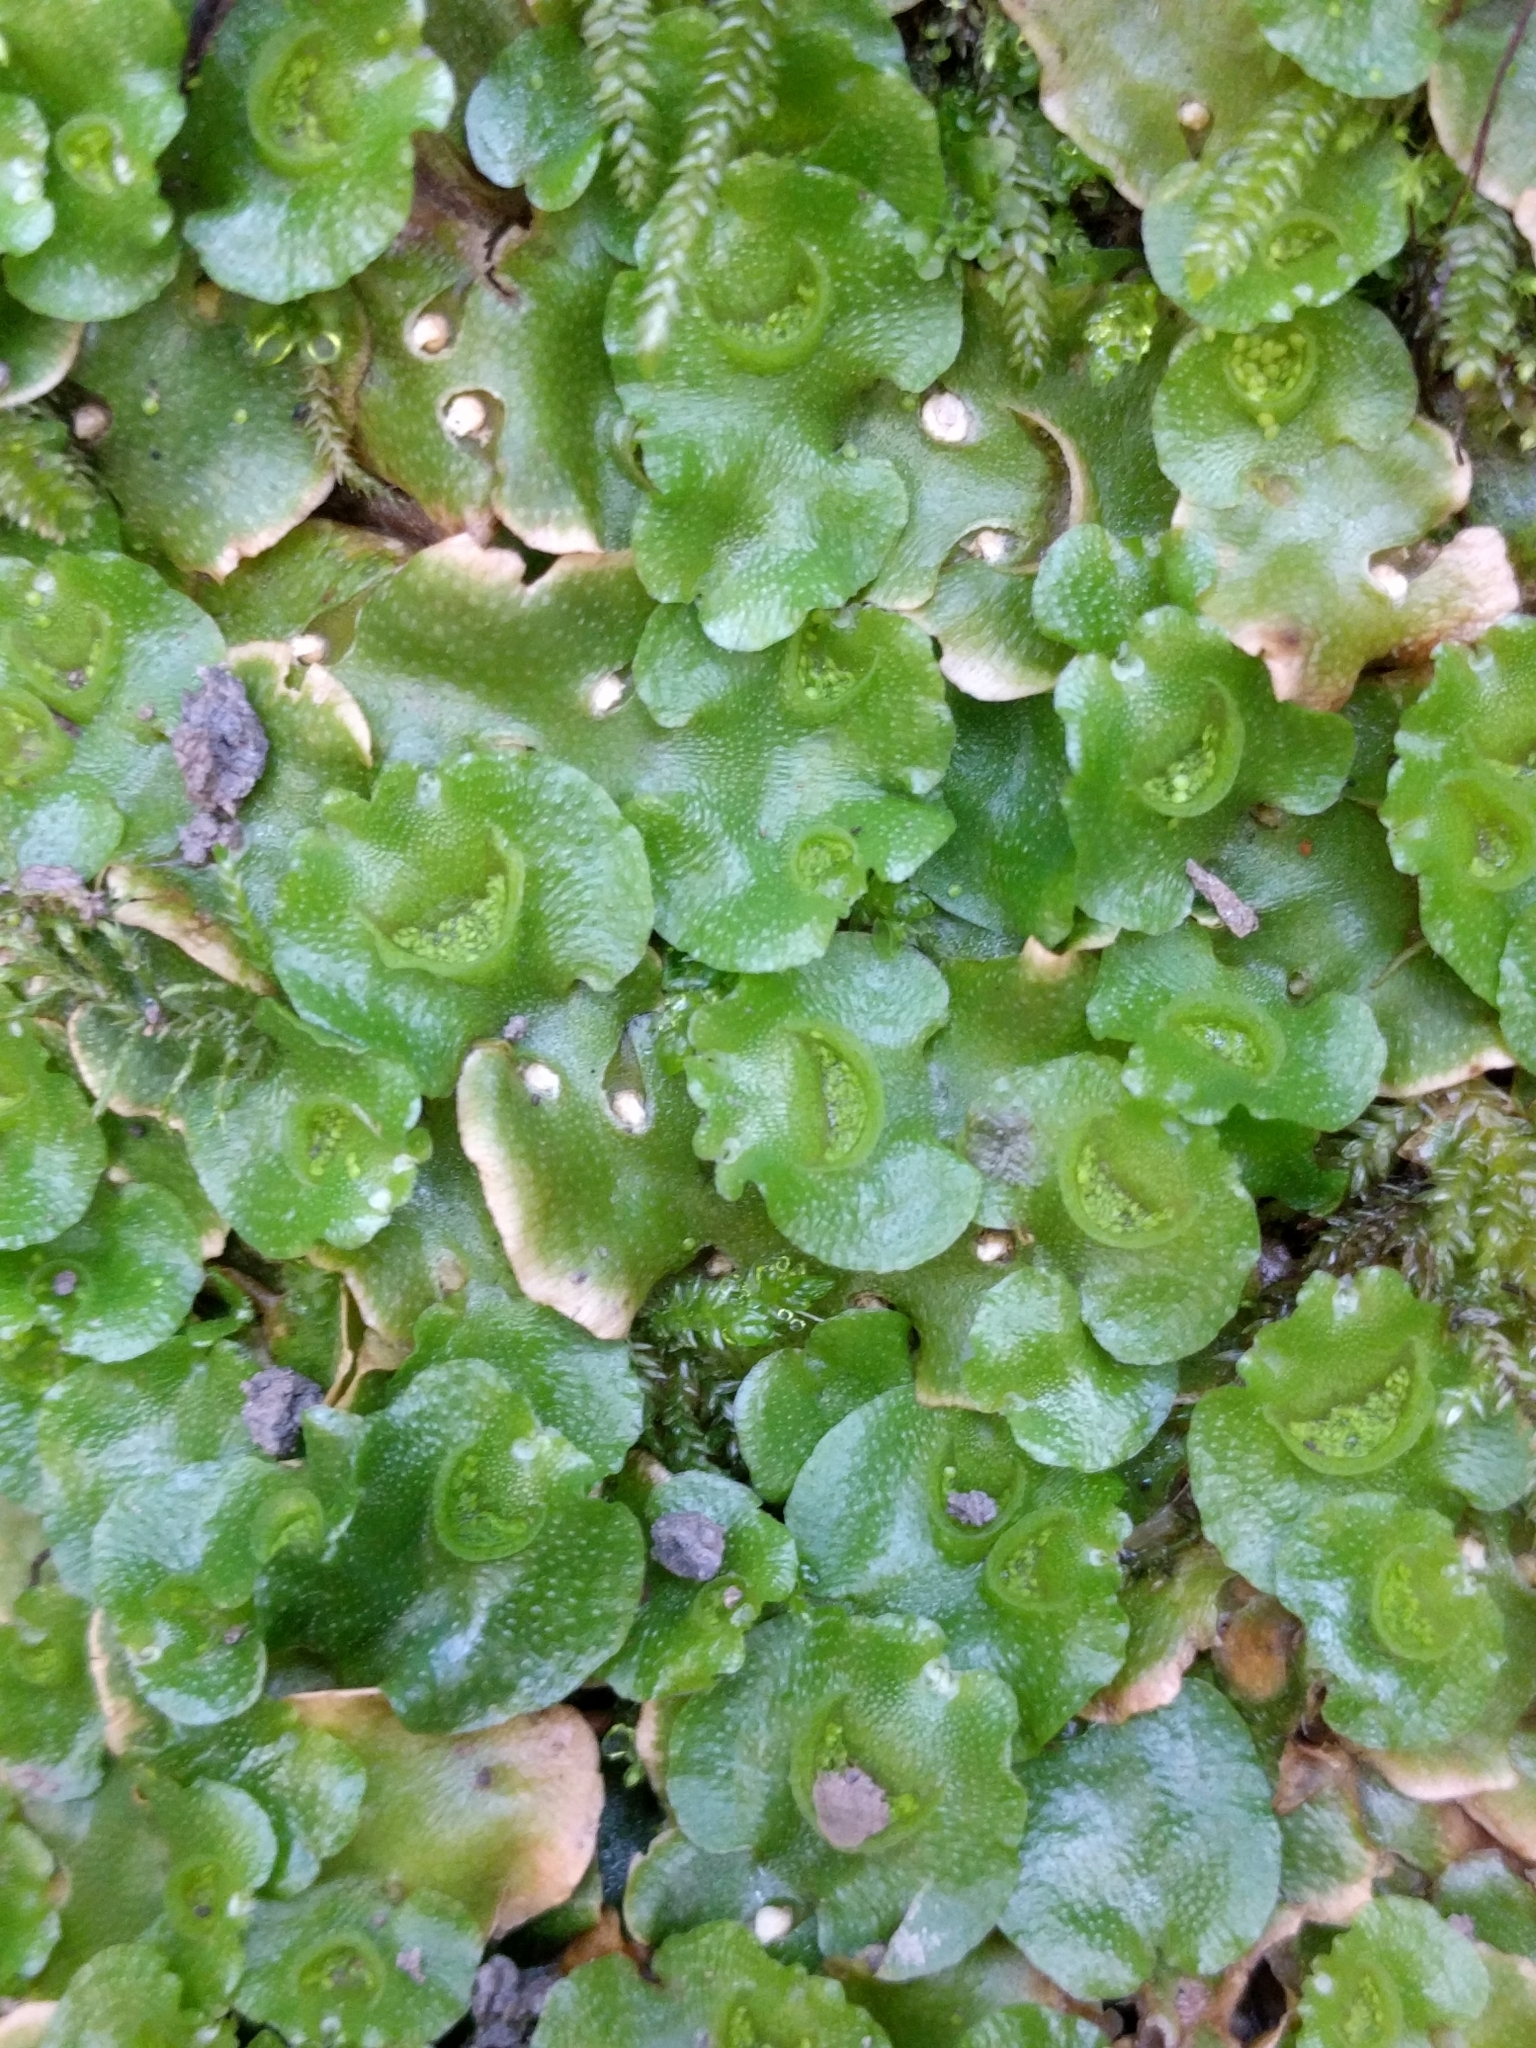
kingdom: Plantae
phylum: Marchantiophyta
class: Marchantiopsida
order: Lunulariales
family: Lunulariaceae
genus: Lunularia
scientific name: Lunularia cruciata
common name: Crescent-cup liverwort
